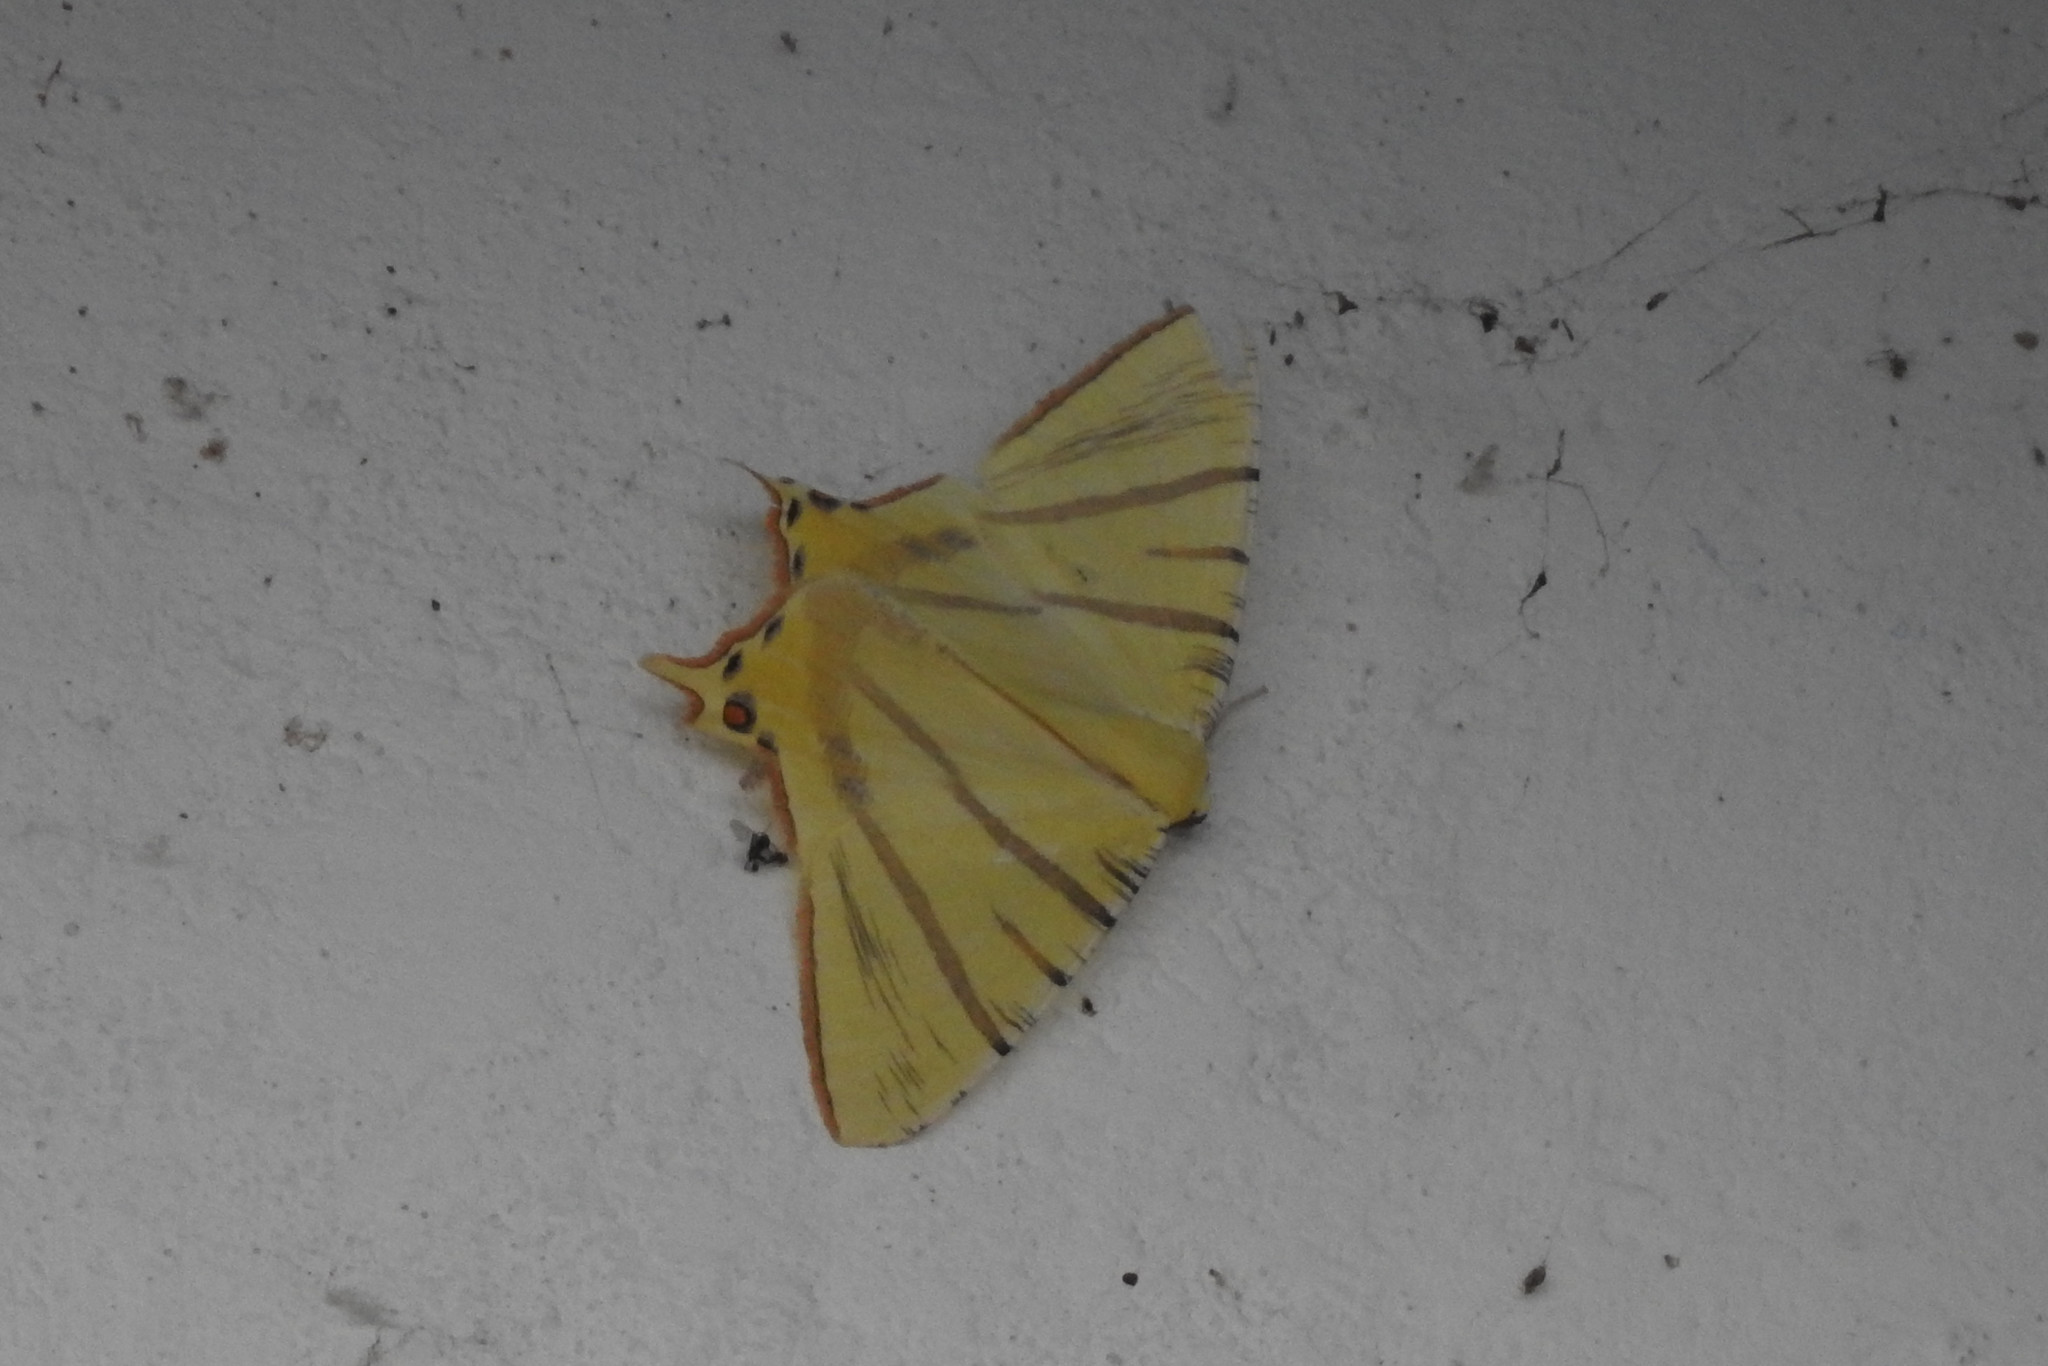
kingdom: Animalia
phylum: Arthropoda
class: Insecta
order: Lepidoptera
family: Geometridae
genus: Ourapteryx
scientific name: Ourapteryx primularis
